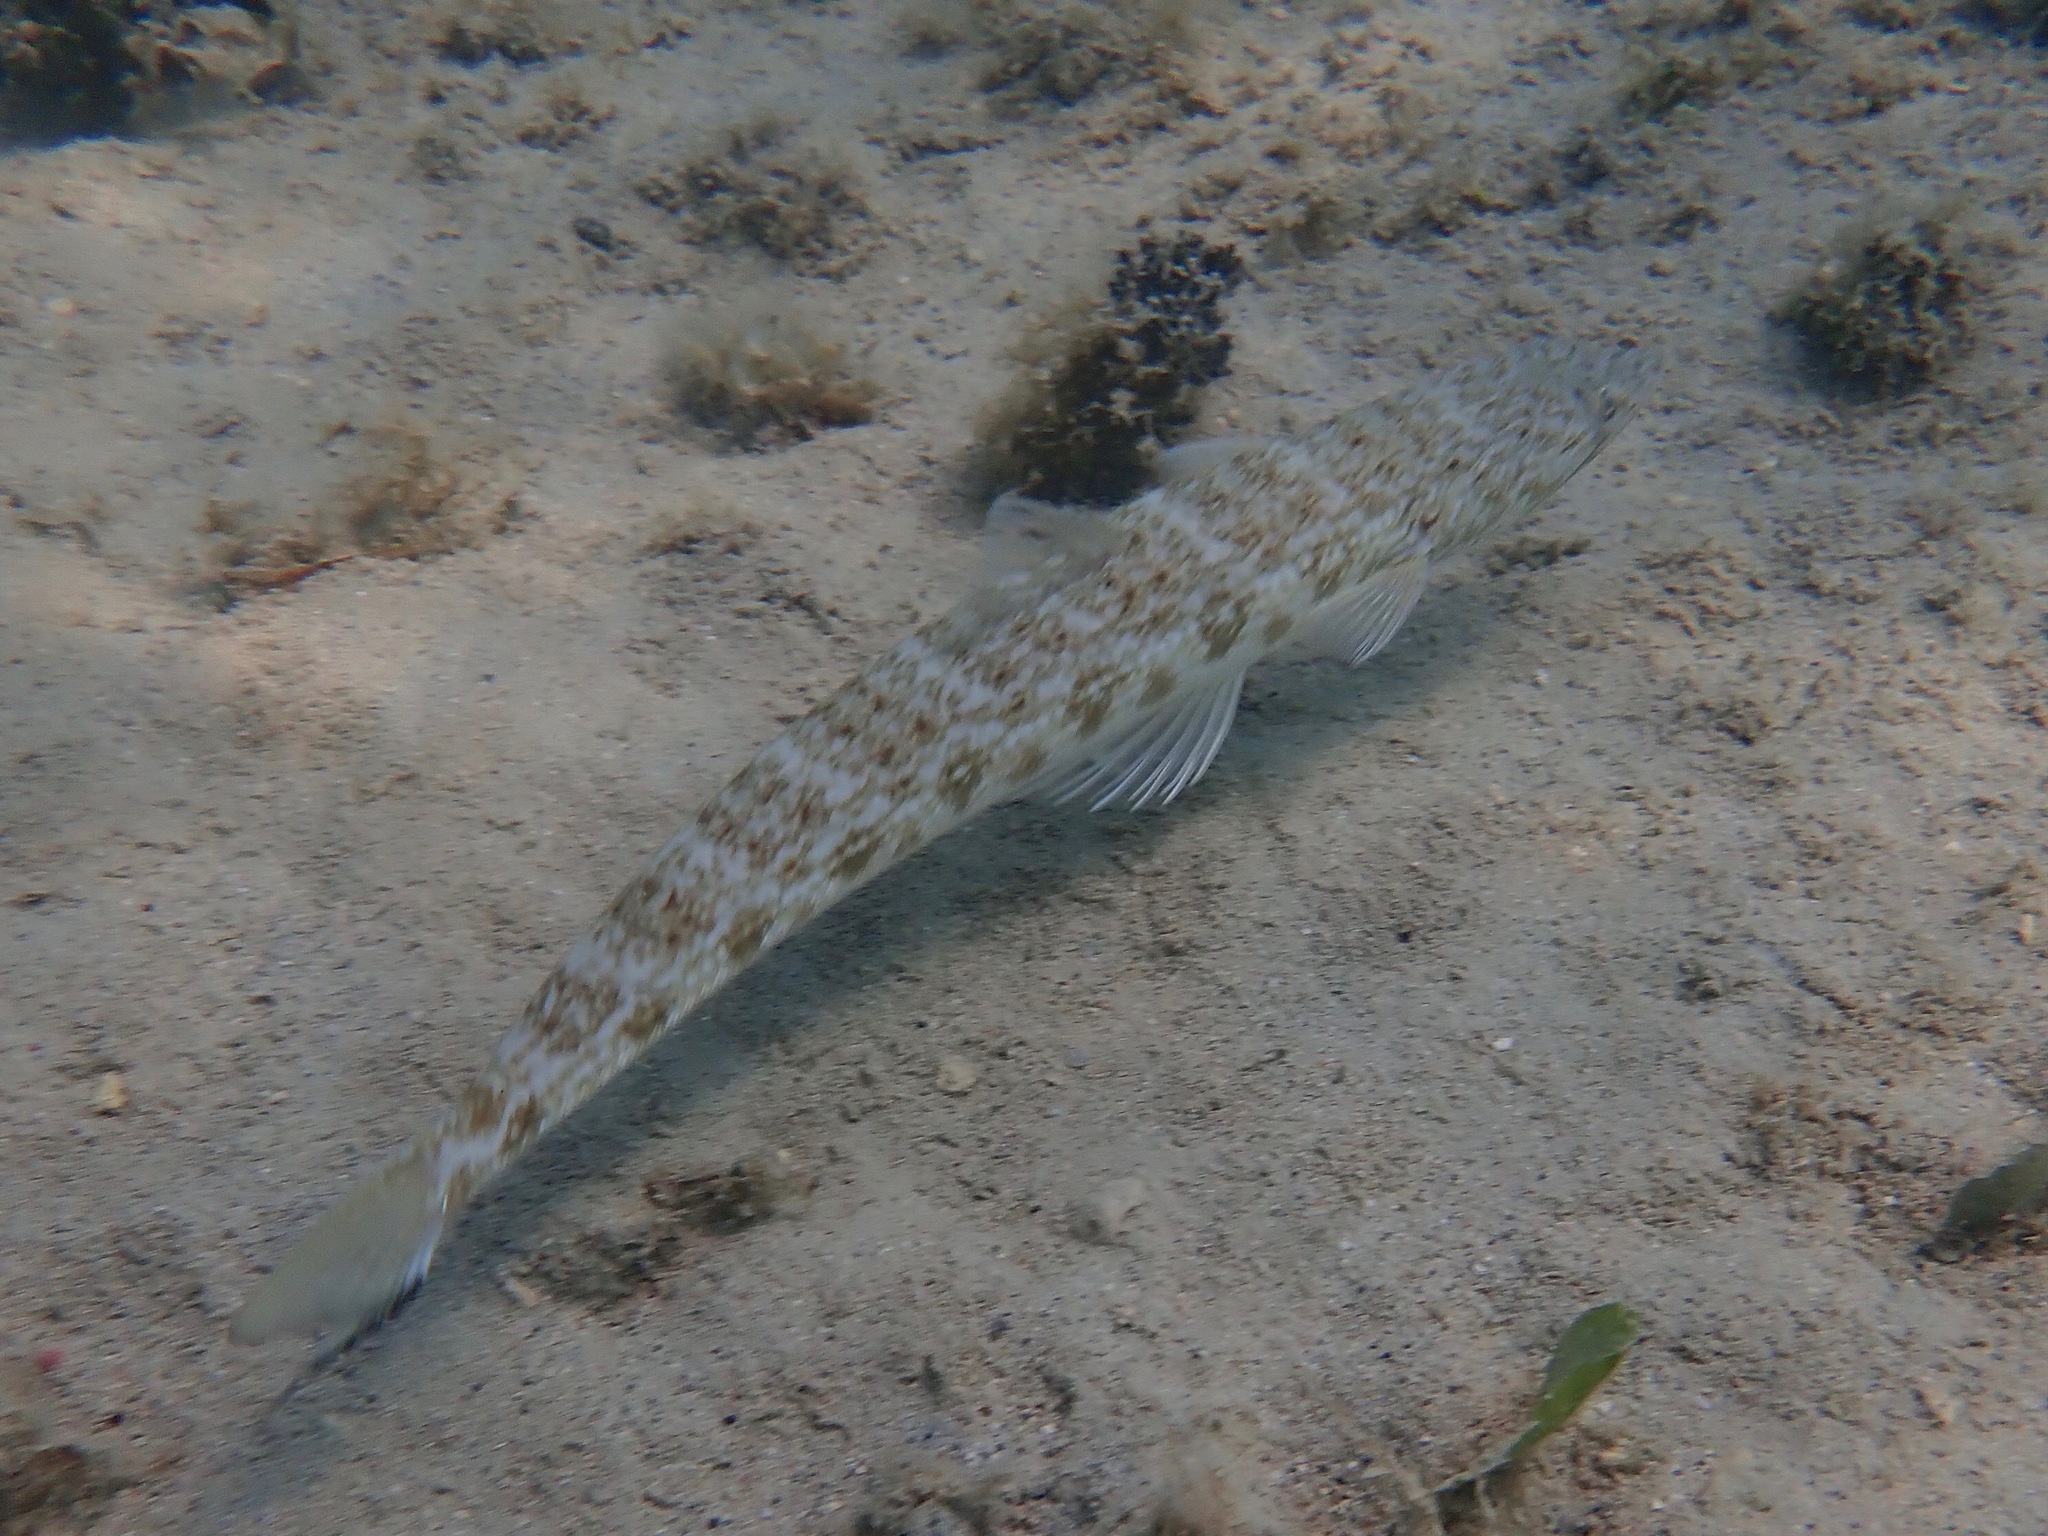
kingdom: Animalia
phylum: Chordata
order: Aulopiformes
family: Synodontidae
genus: Synodus
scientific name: Synodus foetens
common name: Inshore lizardfish
